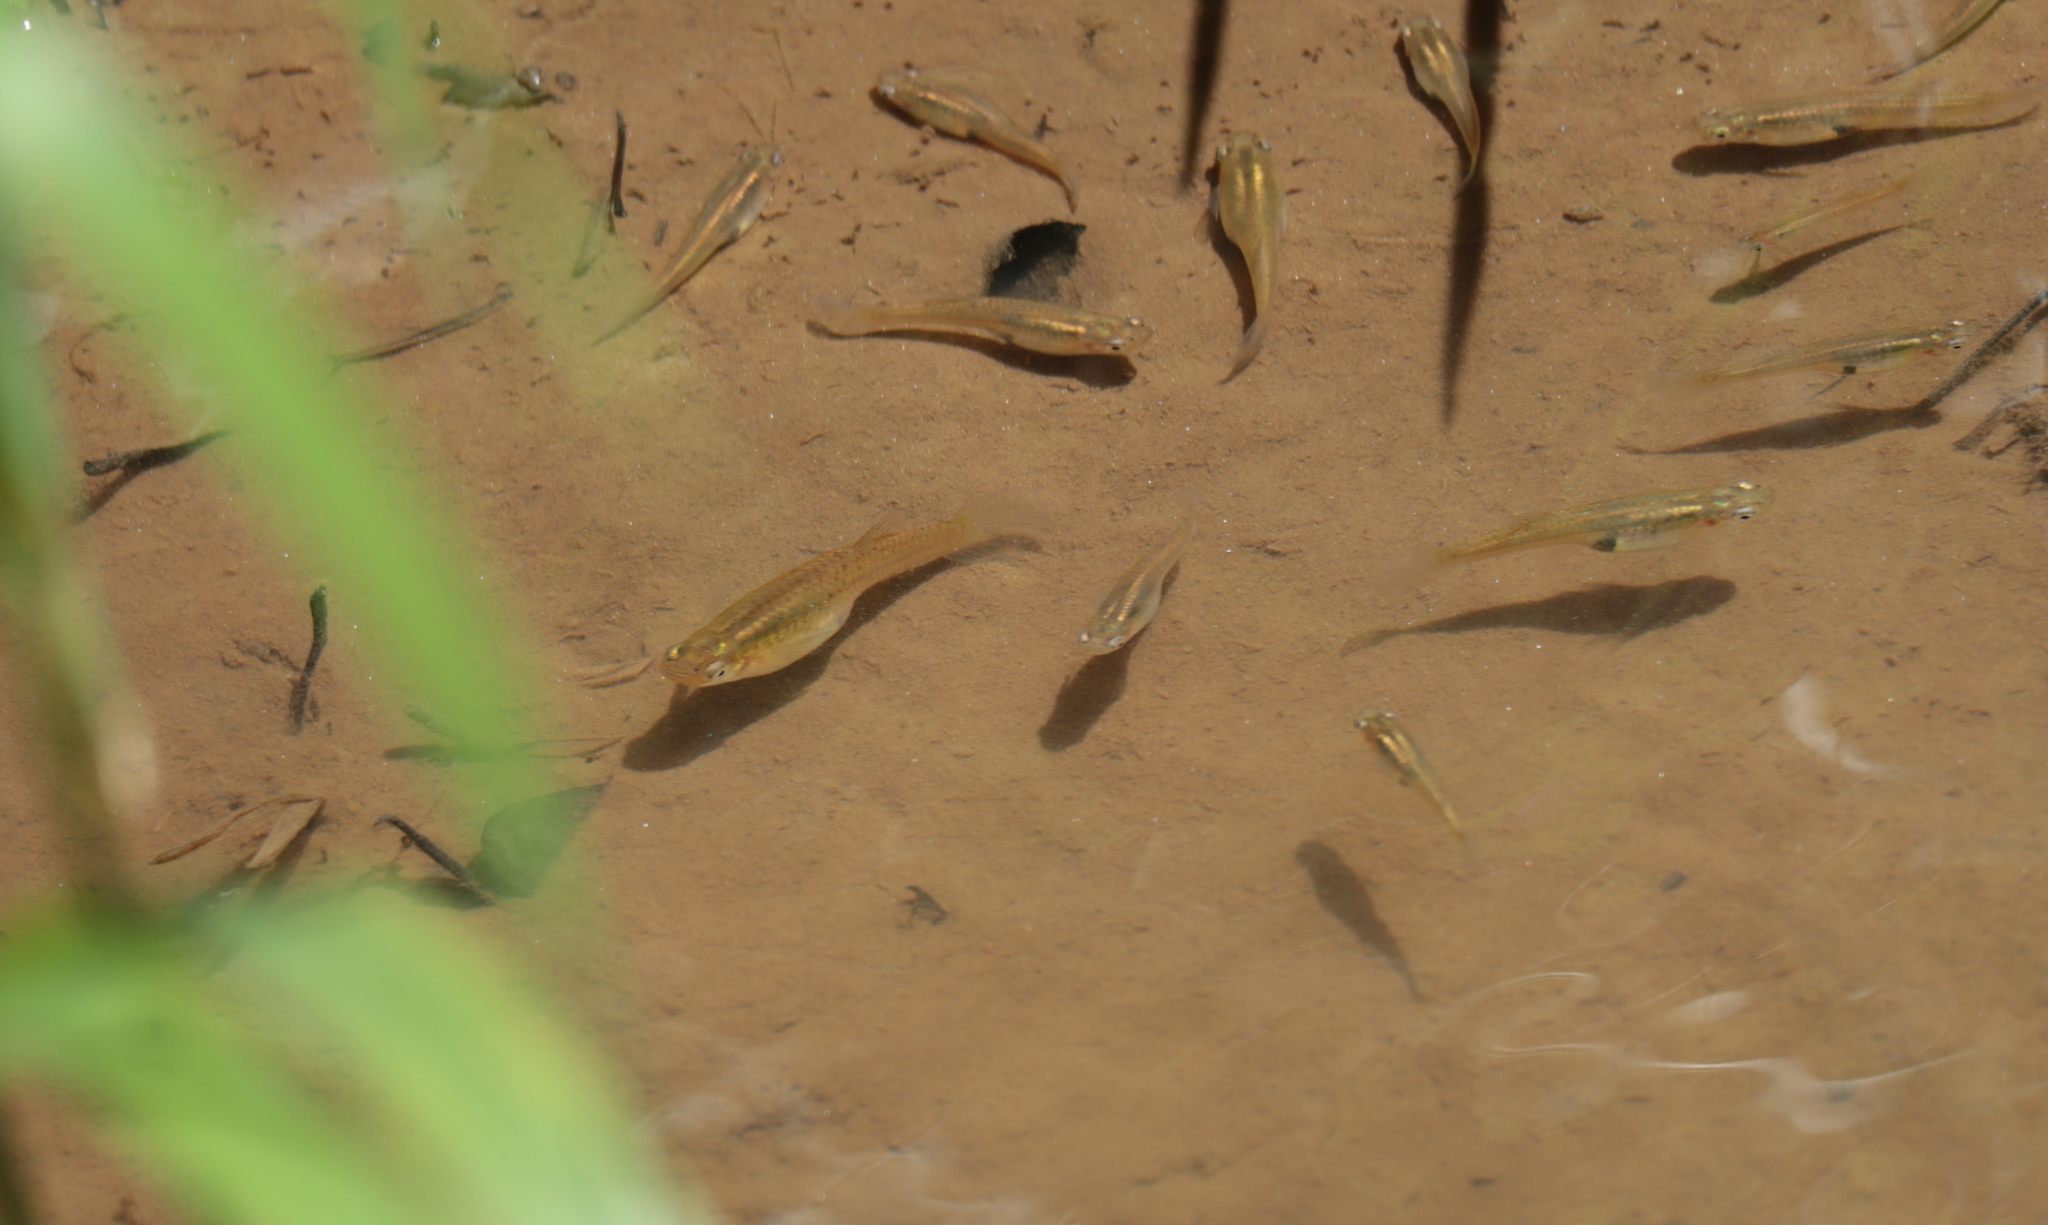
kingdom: Animalia
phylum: Chordata
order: Cyprinodontiformes
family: Poeciliidae
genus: Gambusia
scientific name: Gambusia holbrooki
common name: Eastern mosquitofish
